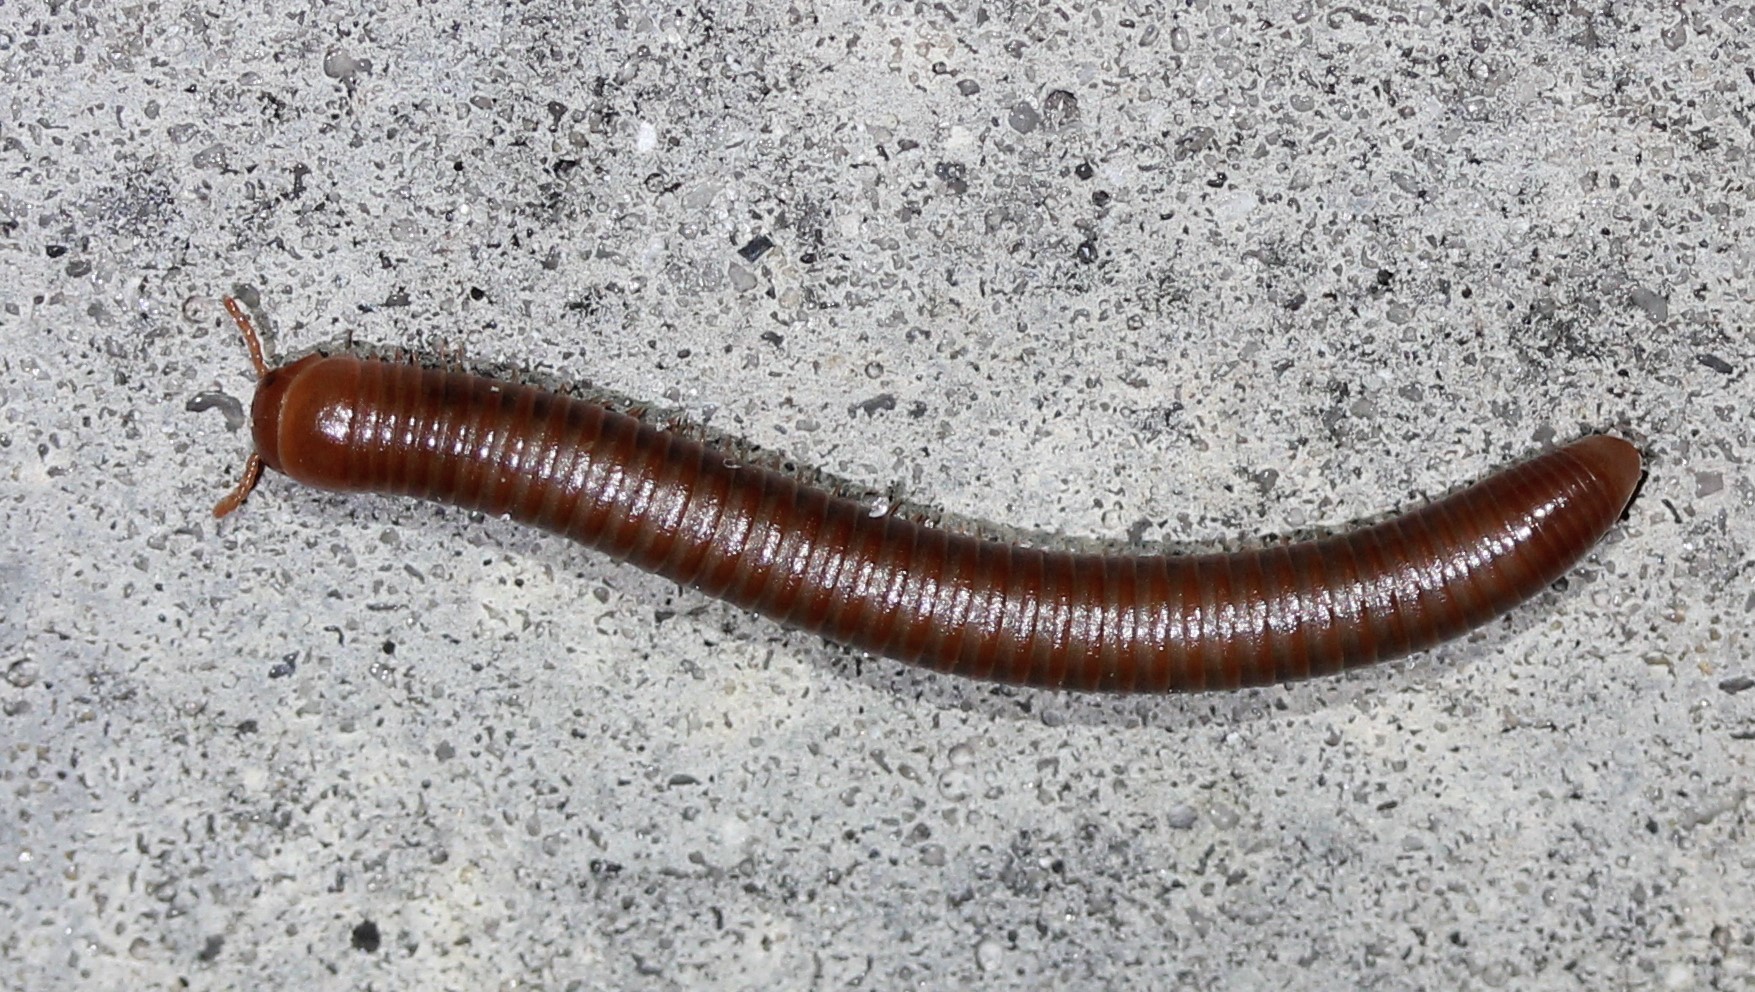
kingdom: Animalia
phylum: Arthropoda
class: Diplopoda
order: Spirobolida
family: Pachybolidae
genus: Trigoniulus
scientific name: Trigoniulus corallinus
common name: Millipede
